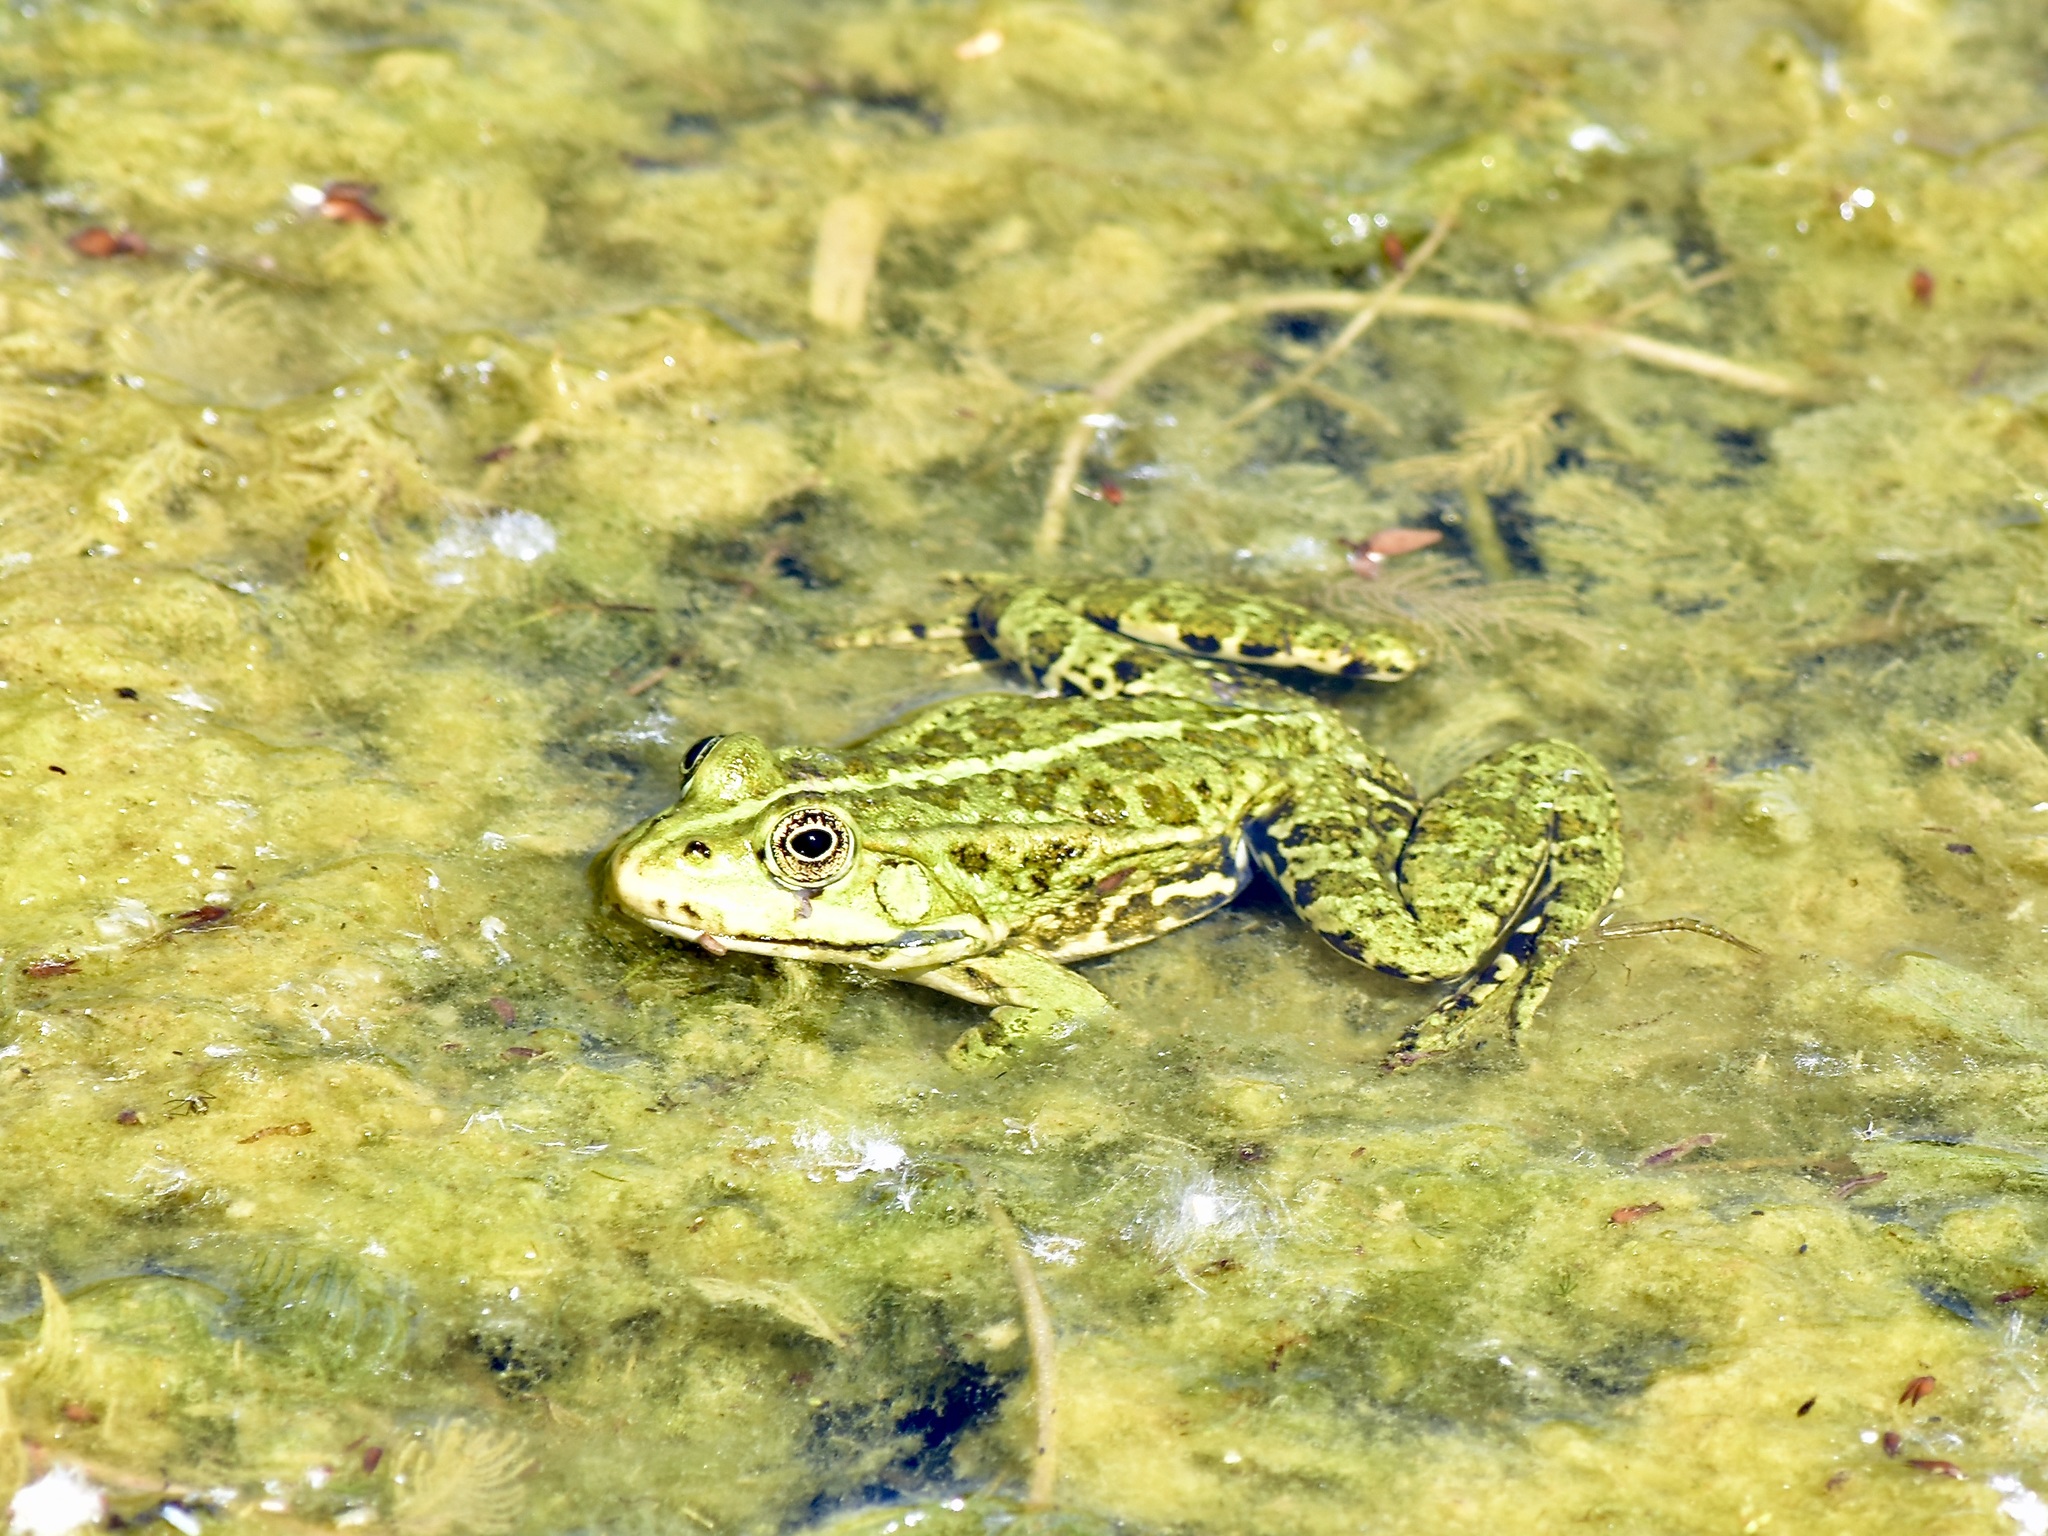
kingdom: Animalia
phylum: Chordata
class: Amphibia
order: Anura
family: Ranidae
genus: Pelophylax
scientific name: Pelophylax
